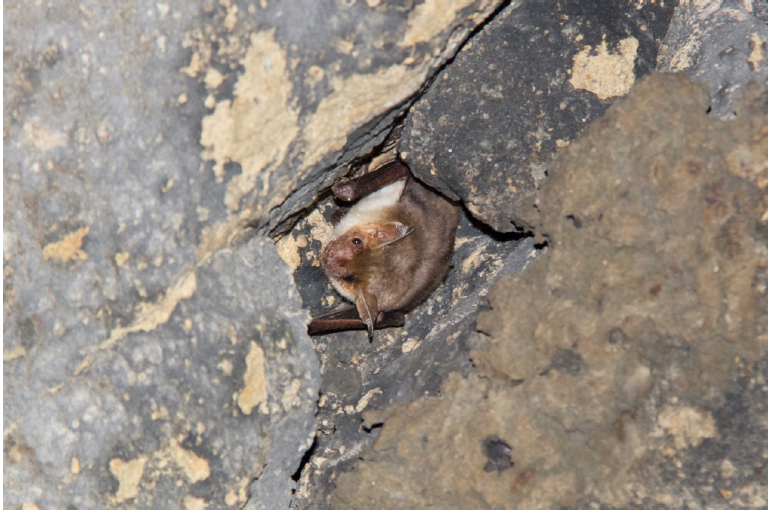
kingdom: Animalia
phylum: Chordata
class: Mammalia
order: Chiroptera
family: Vespertilionidae
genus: Myotis
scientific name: Myotis blythii
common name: Lesser mouse-eared myotis
